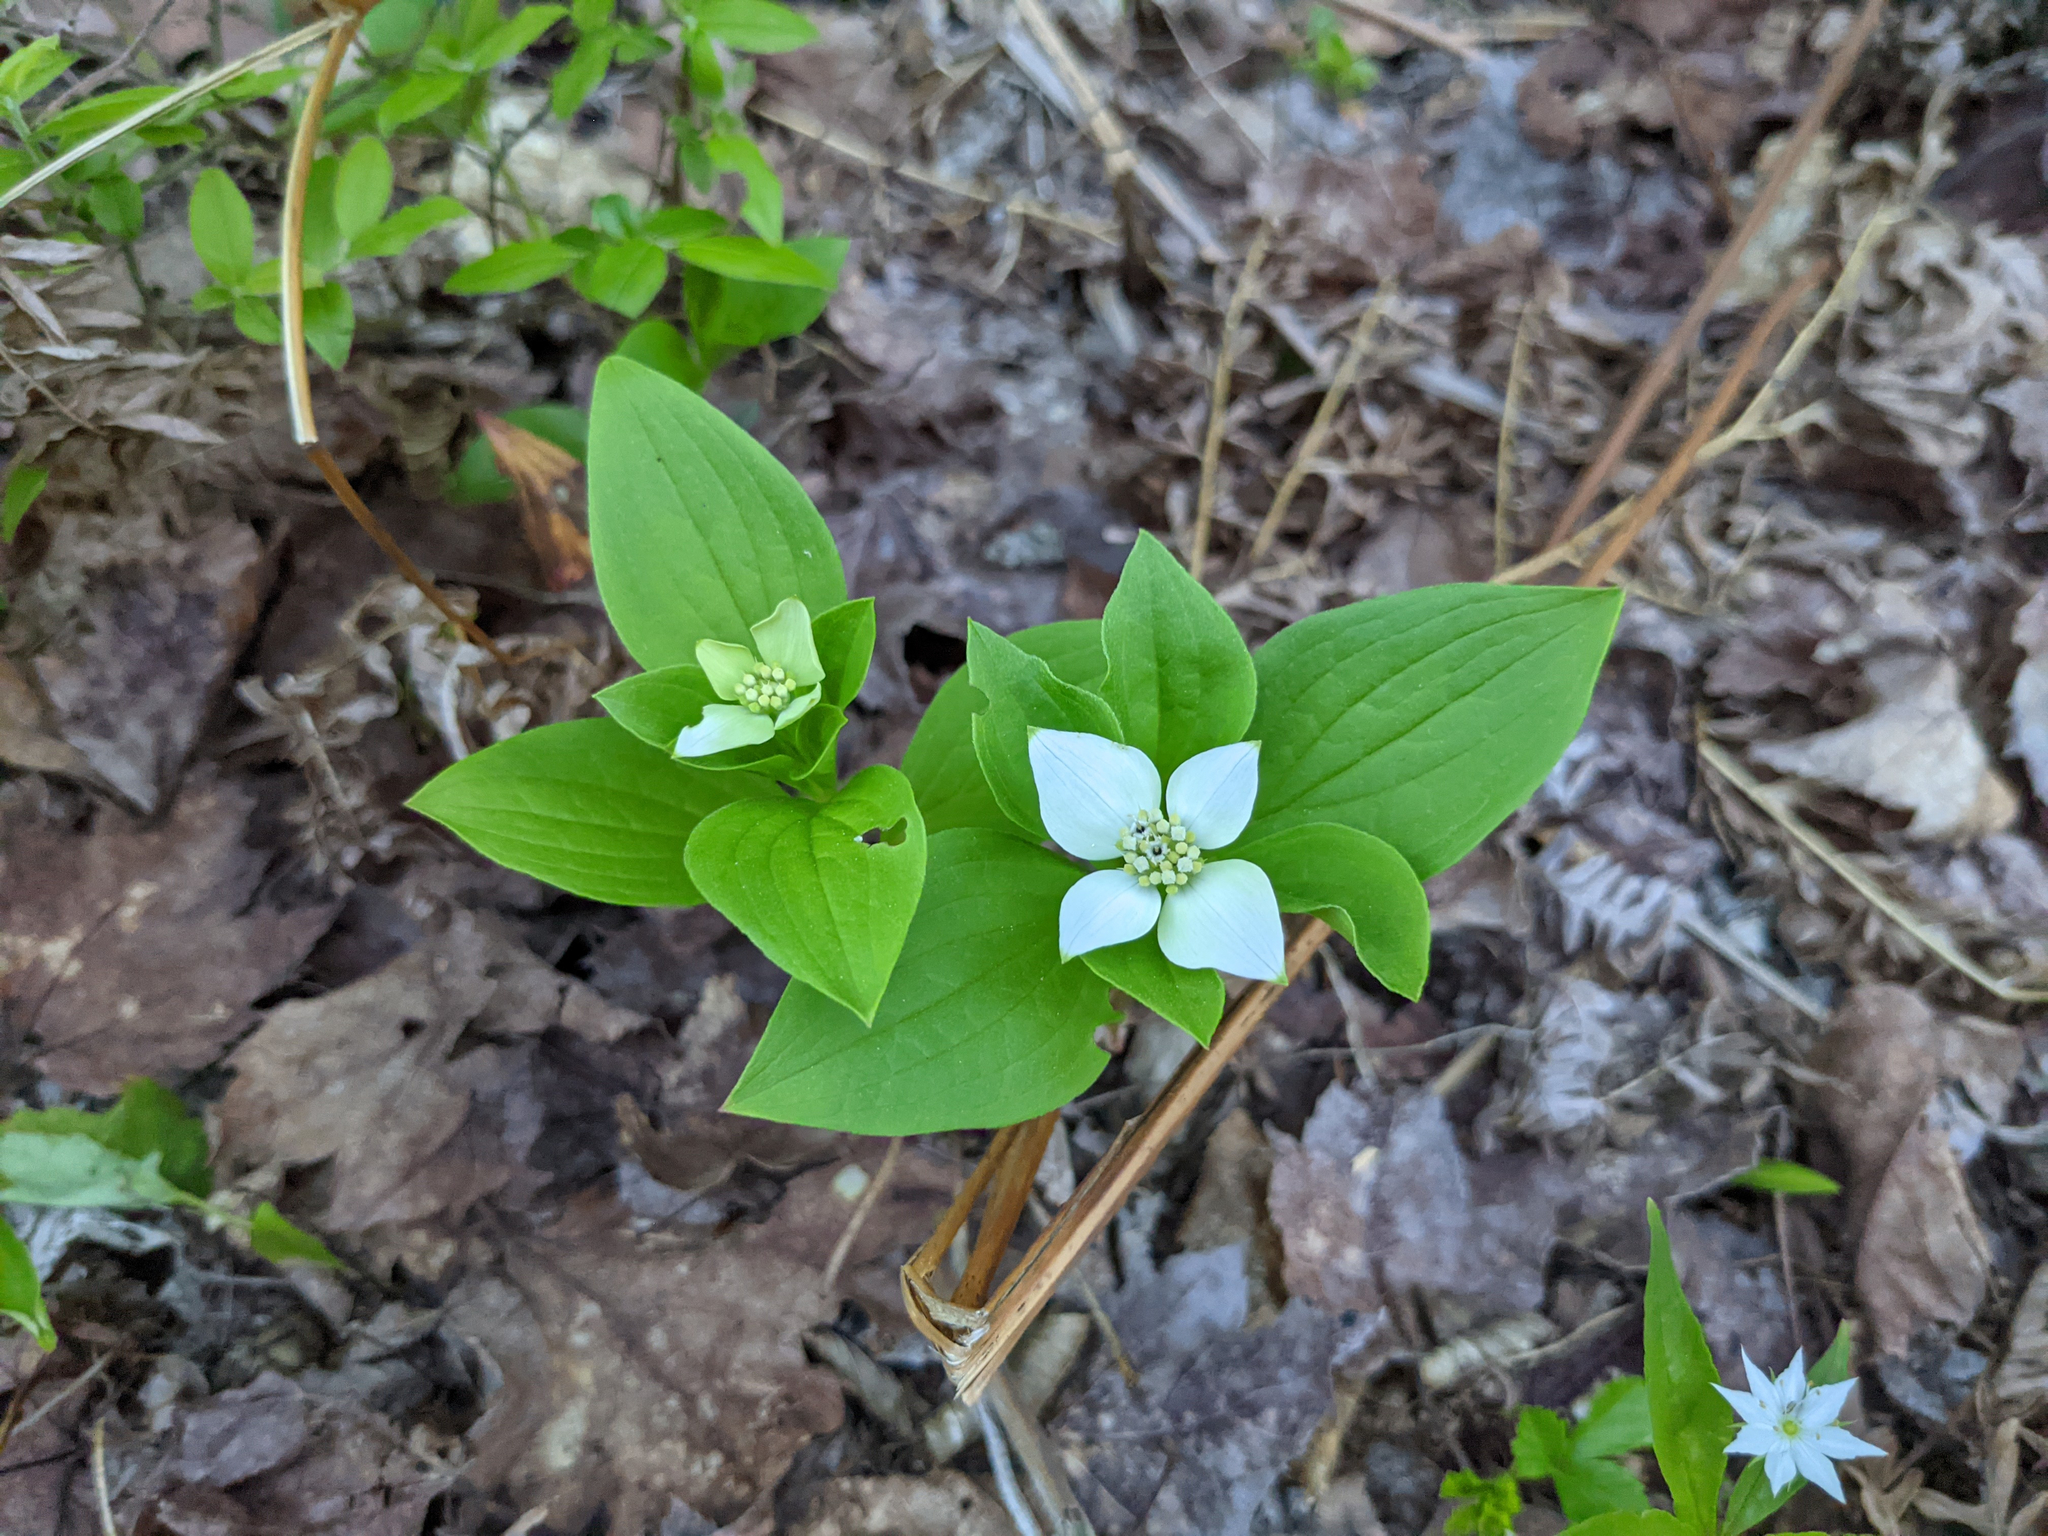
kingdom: Plantae
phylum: Tracheophyta
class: Magnoliopsida
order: Cornales
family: Cornaceae
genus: Cornus
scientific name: Cornus canadensis
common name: Creeping dogwood
